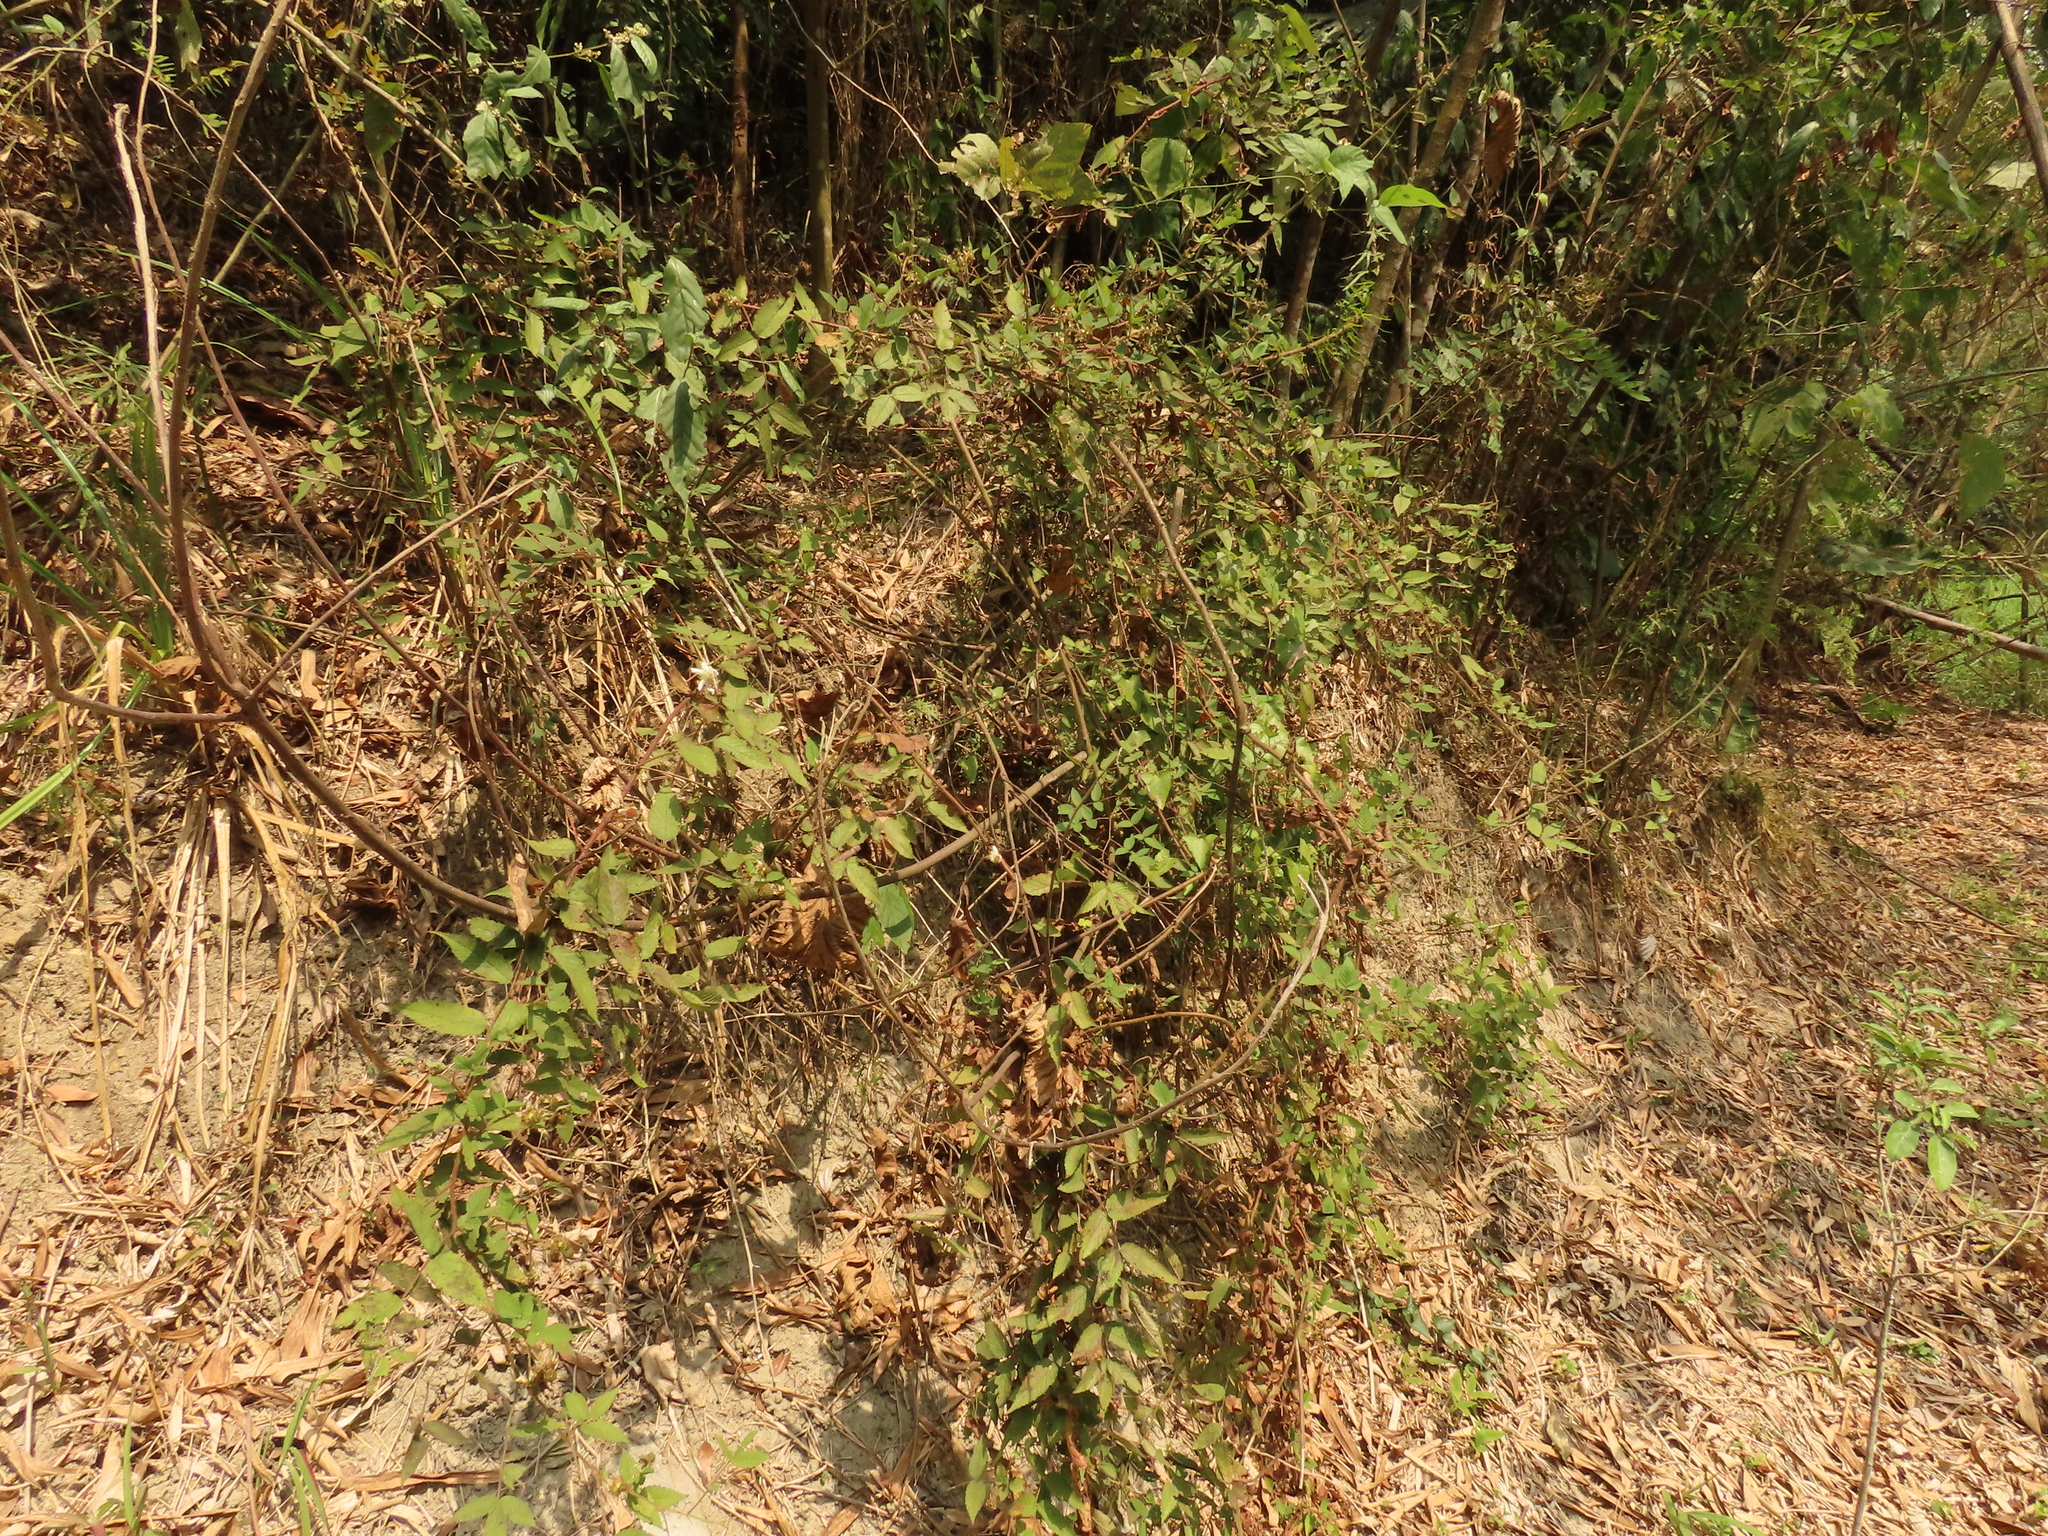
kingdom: Plantae
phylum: Tracheophyta
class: Magnoliopsida
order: Rosales
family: Rosaceae
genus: Rubus
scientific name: Rubus croceacanthus
